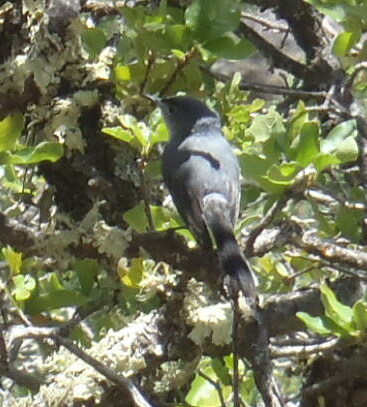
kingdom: Animalia
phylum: Chordata
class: Aves
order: Passeriformes
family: Polioptilidae
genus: Polioptila
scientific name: Polioptila caerulea
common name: Blue-gray gnatcatcher
